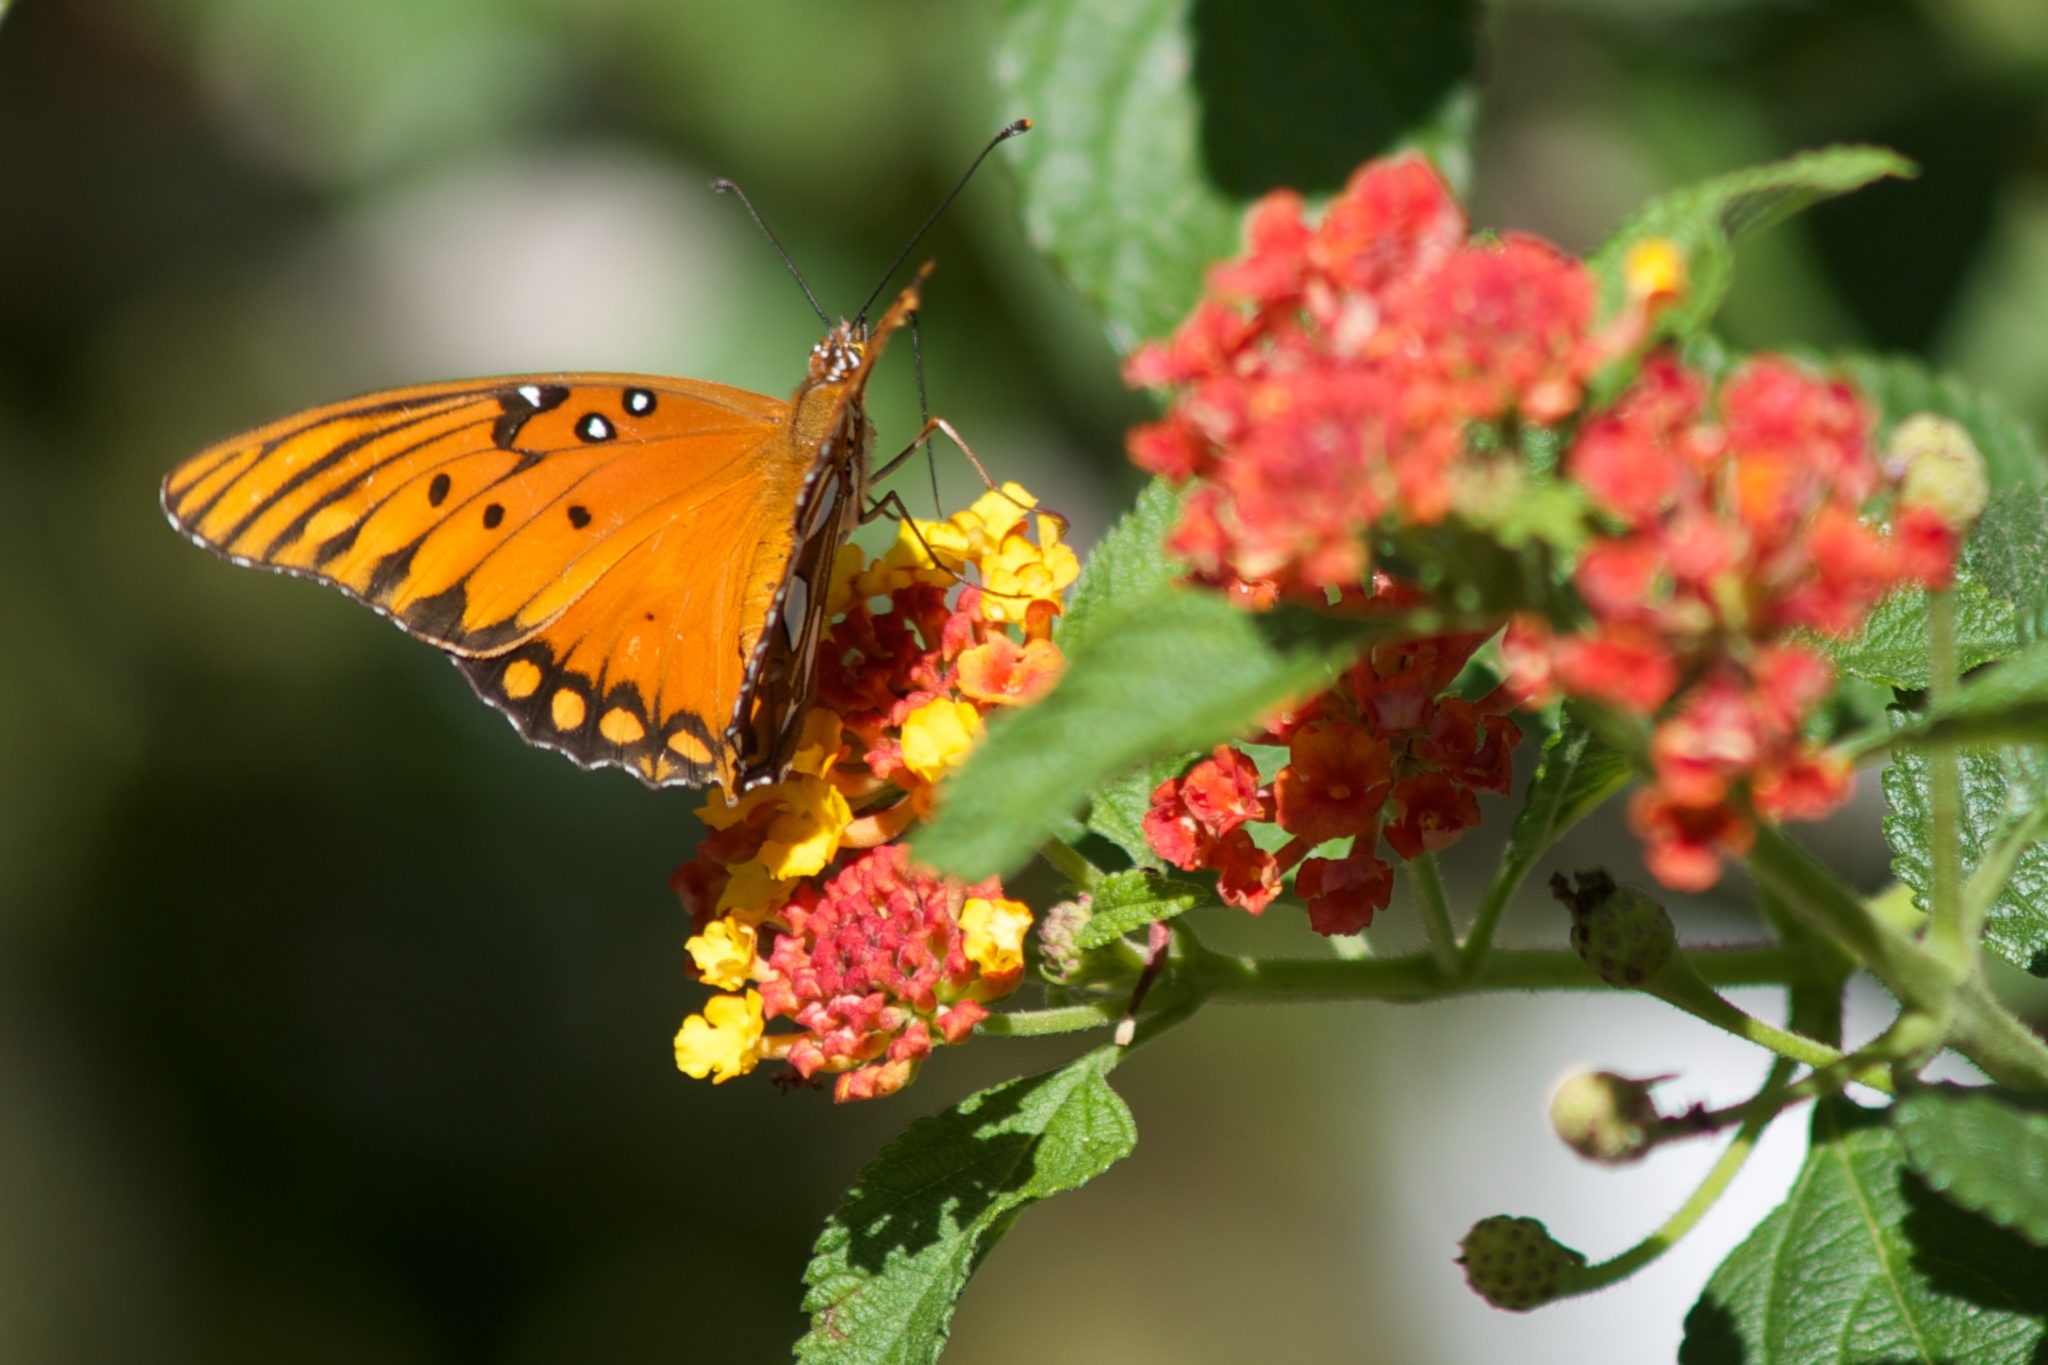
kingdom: Animalia
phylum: Arthropoda
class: Insecta
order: Lepidoptera
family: Nymphalidae
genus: Dione
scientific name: Dione vanillae
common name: Gulf fritillary
